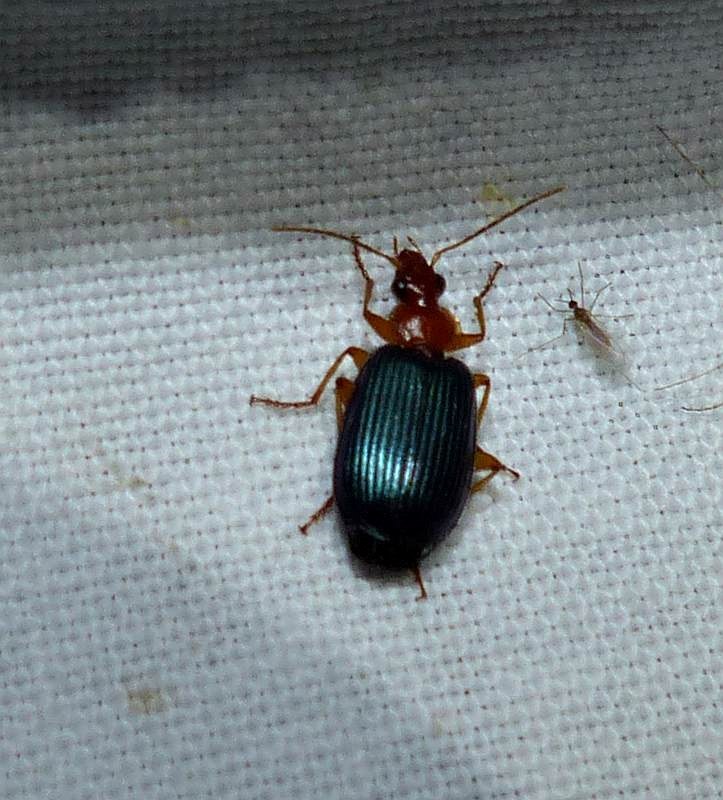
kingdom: Animalia
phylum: Arthropoda
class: Insecta
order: Coleoptera
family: Carabidae
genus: Lebia
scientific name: Lebia grandis
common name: Large foliage ground beetle
